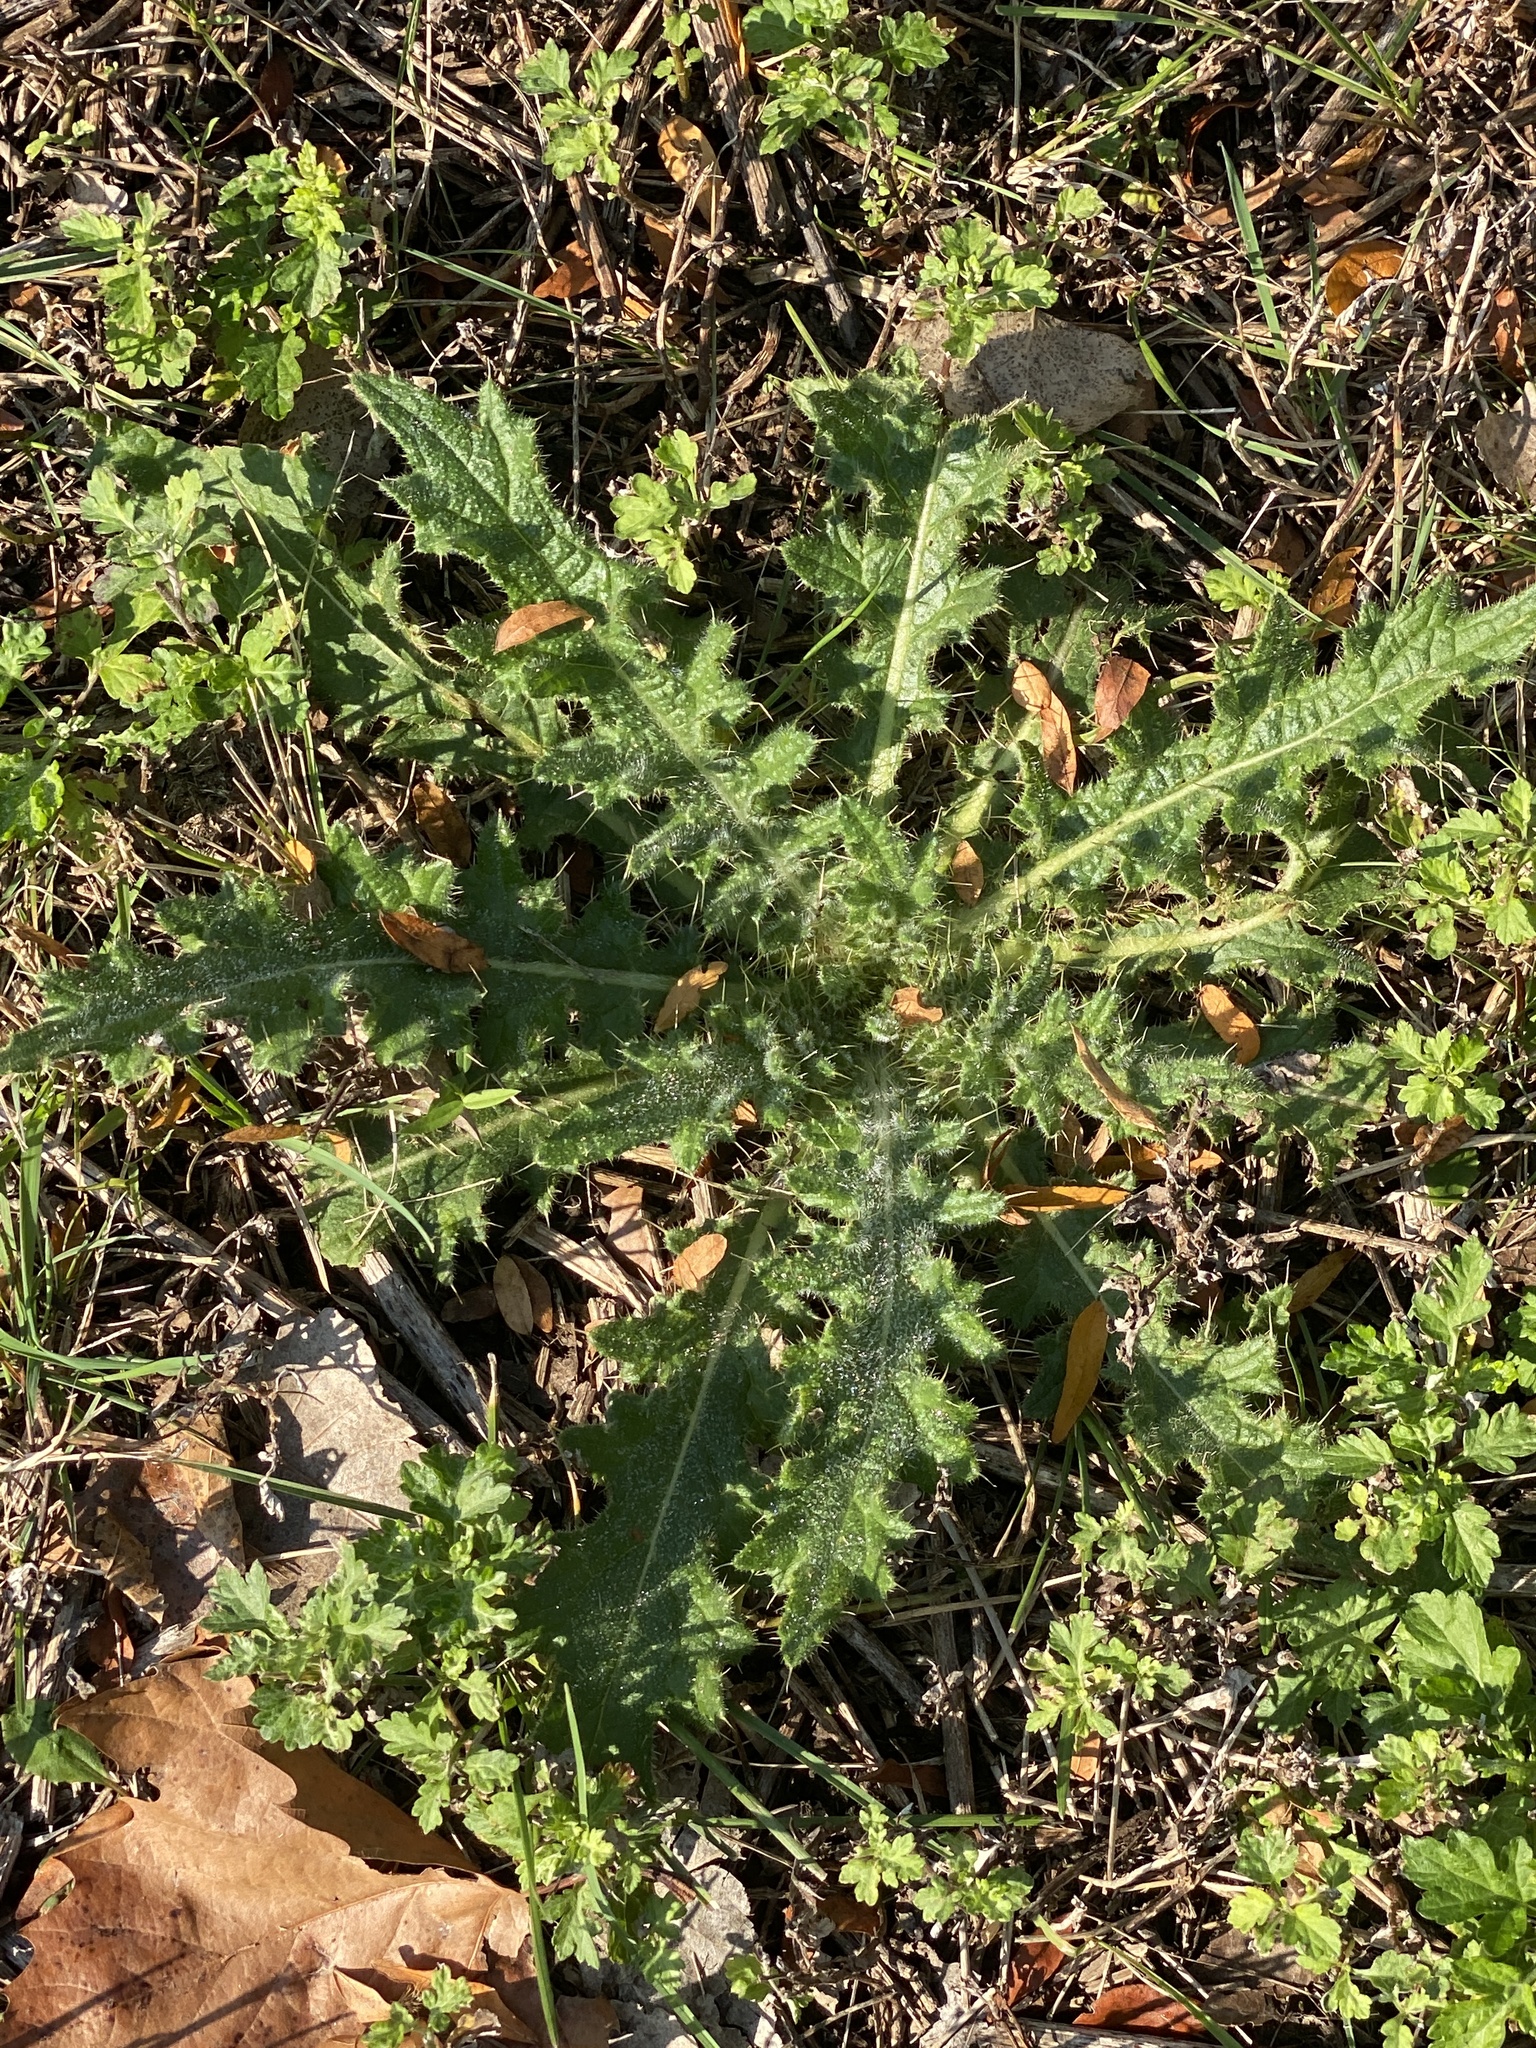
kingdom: Plantae
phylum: Tracheophyta
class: Magnoliopsida
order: Asterales
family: Asteraceae
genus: Cirsium
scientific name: Cirsium vulgare
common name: Bull thistle
